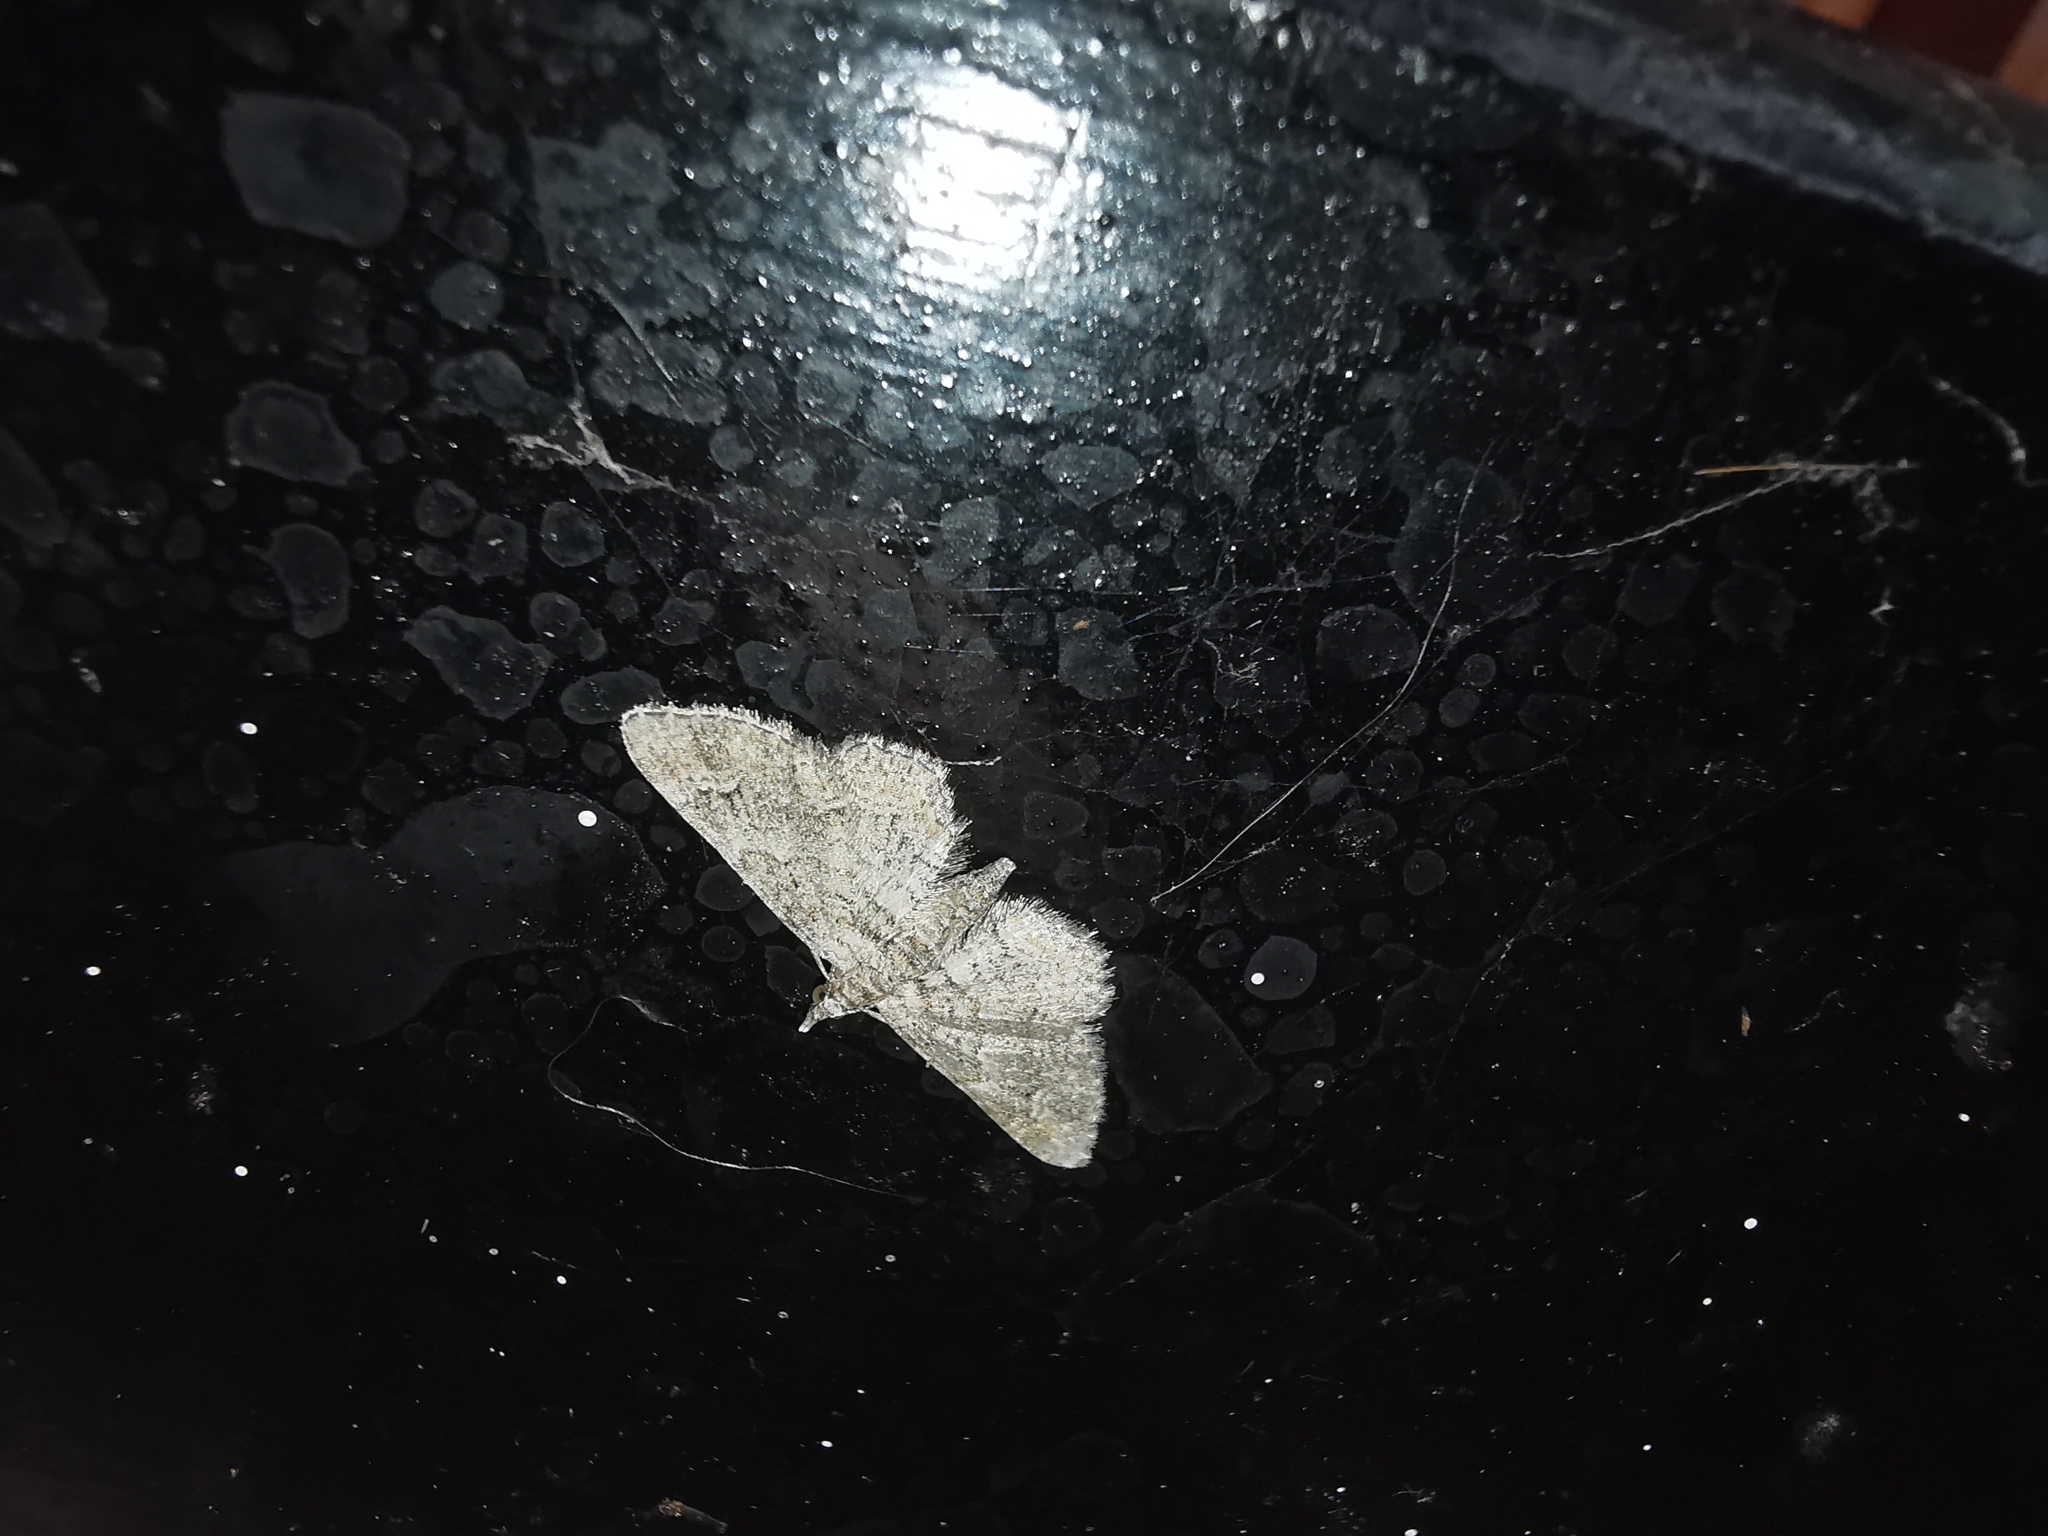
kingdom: Animalia
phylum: Arthropoda
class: Insecta
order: Lepidoptera
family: Geometridae
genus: Gymnoscelis
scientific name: Gymnoscelis rufifasciata
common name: Double-striped pug
